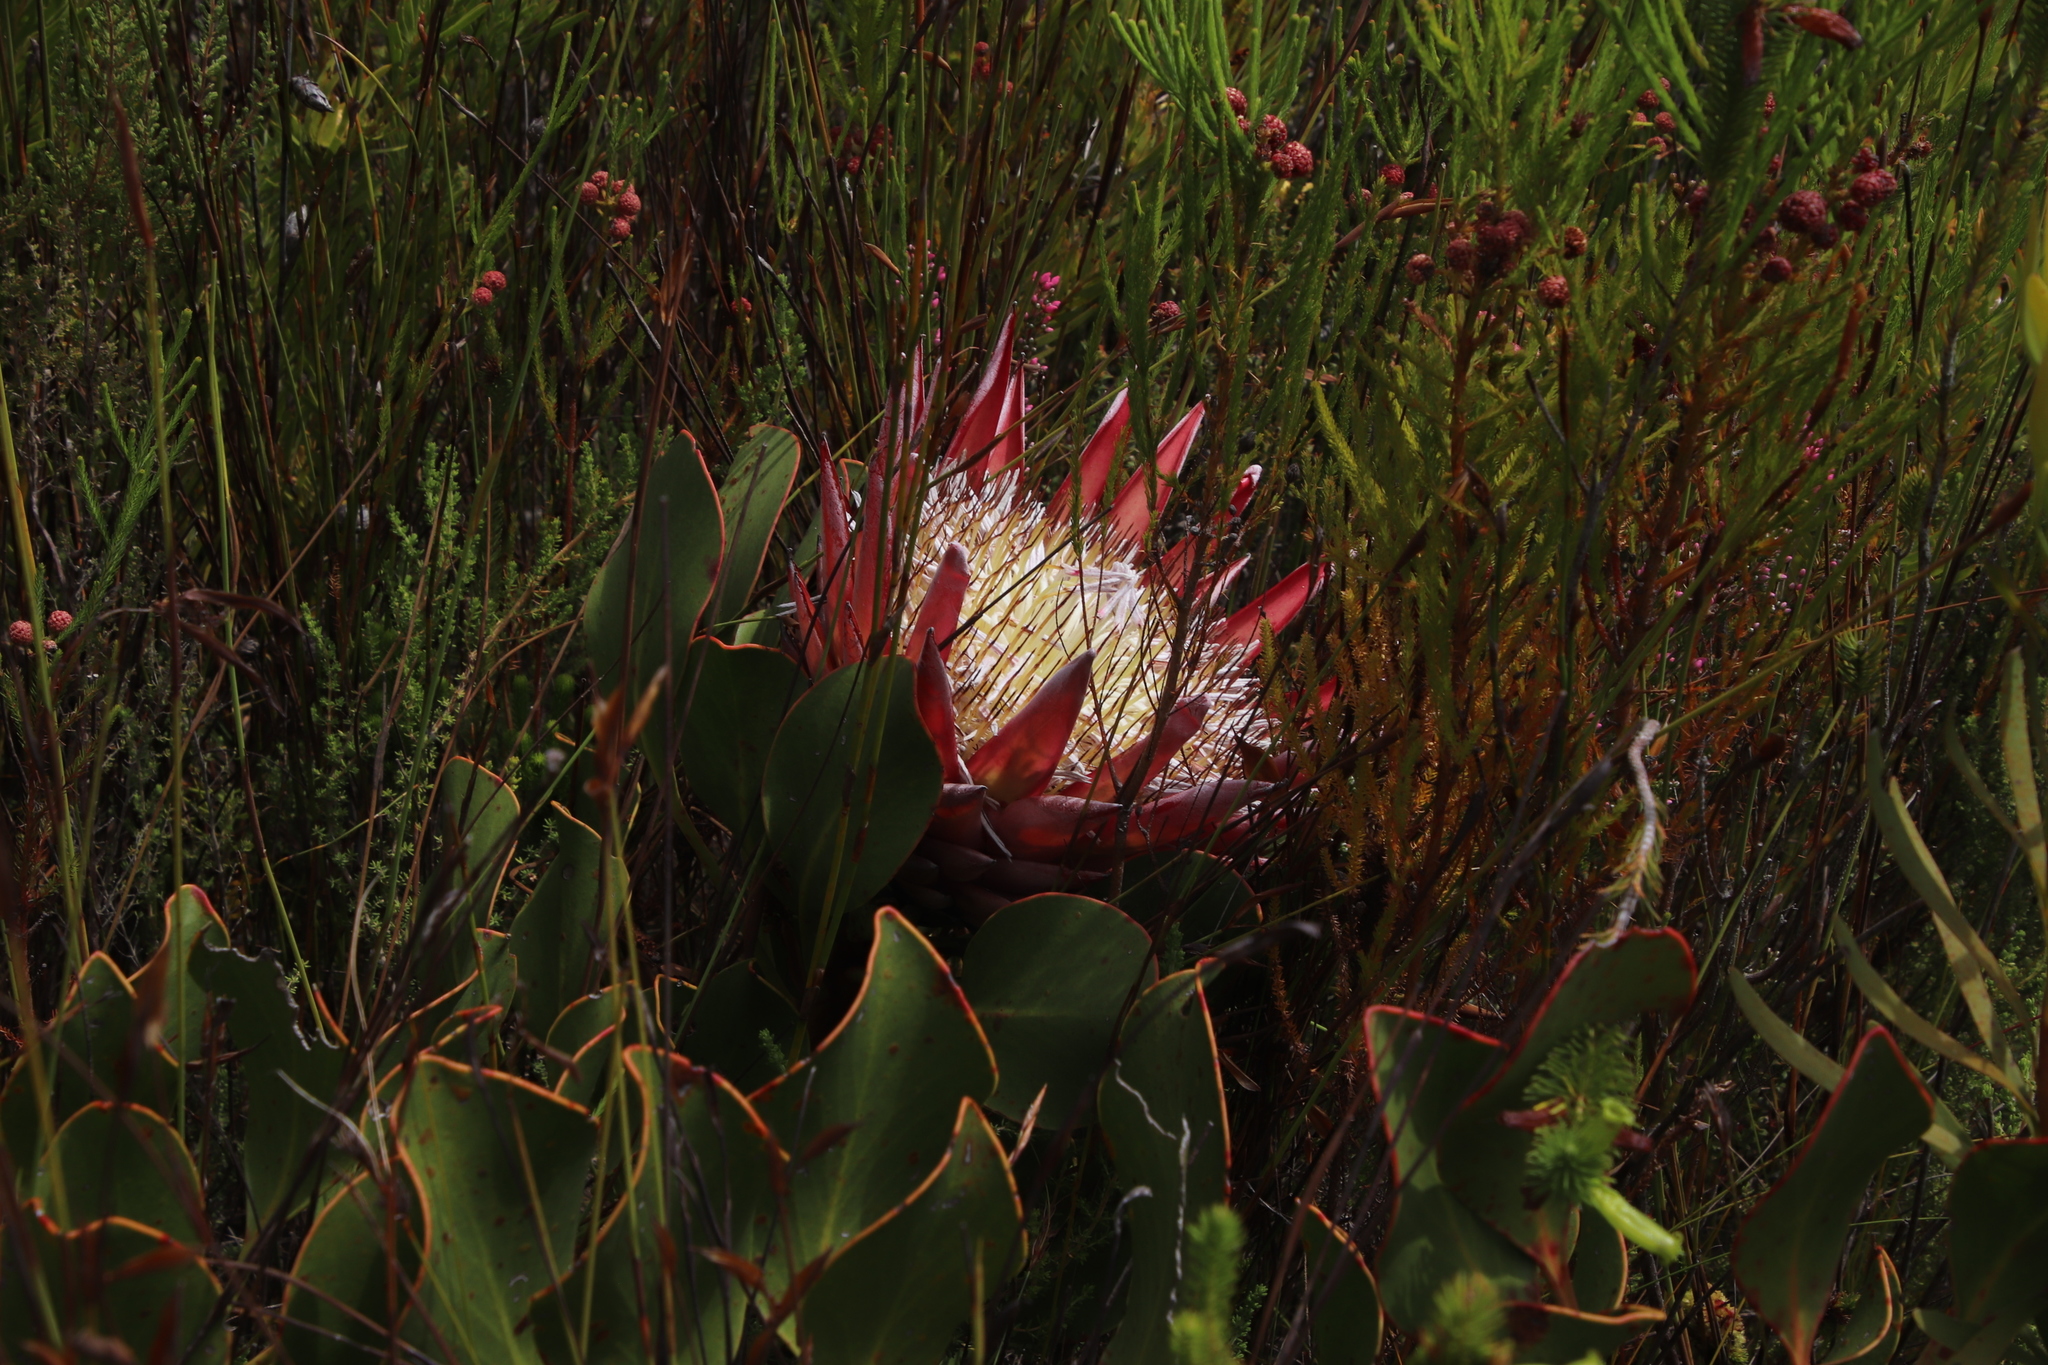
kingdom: Plantae
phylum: Tracheophyta
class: Magnoliopsida
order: Proteales
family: Proteaceae
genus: Protea
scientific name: Protea cynaroides
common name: King protea
